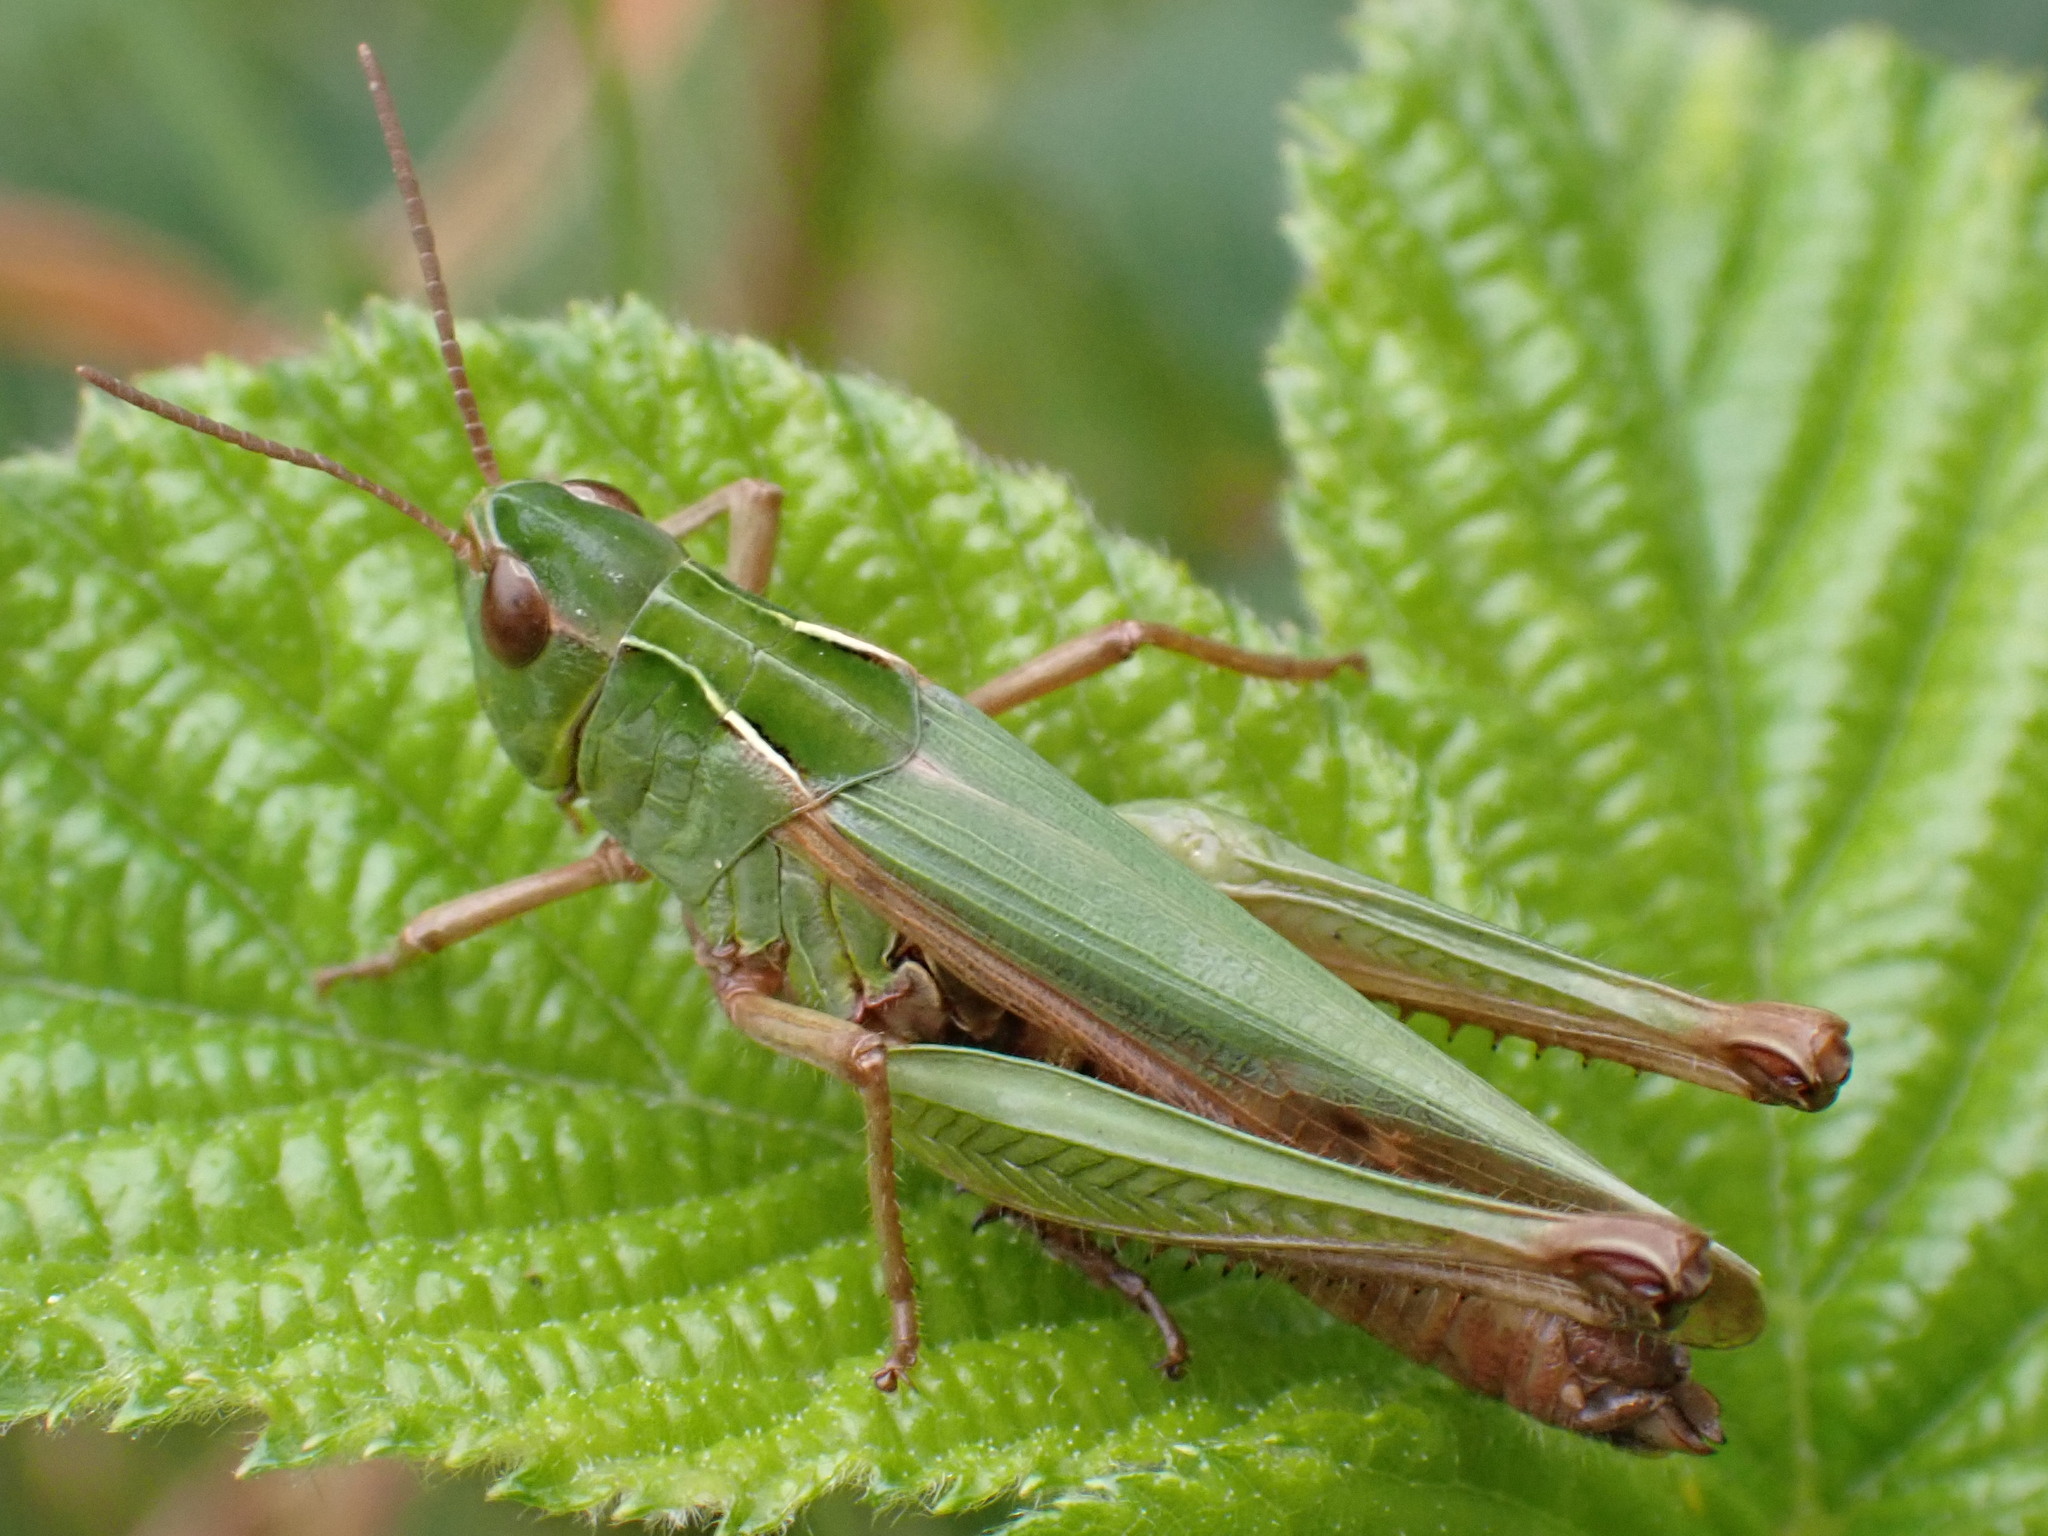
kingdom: Animalia
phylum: Arthropoda
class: Insecta
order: Orthoptera
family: Acrididae
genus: Omocestus
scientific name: Omocestus viridulus
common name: Common green grasshopper
